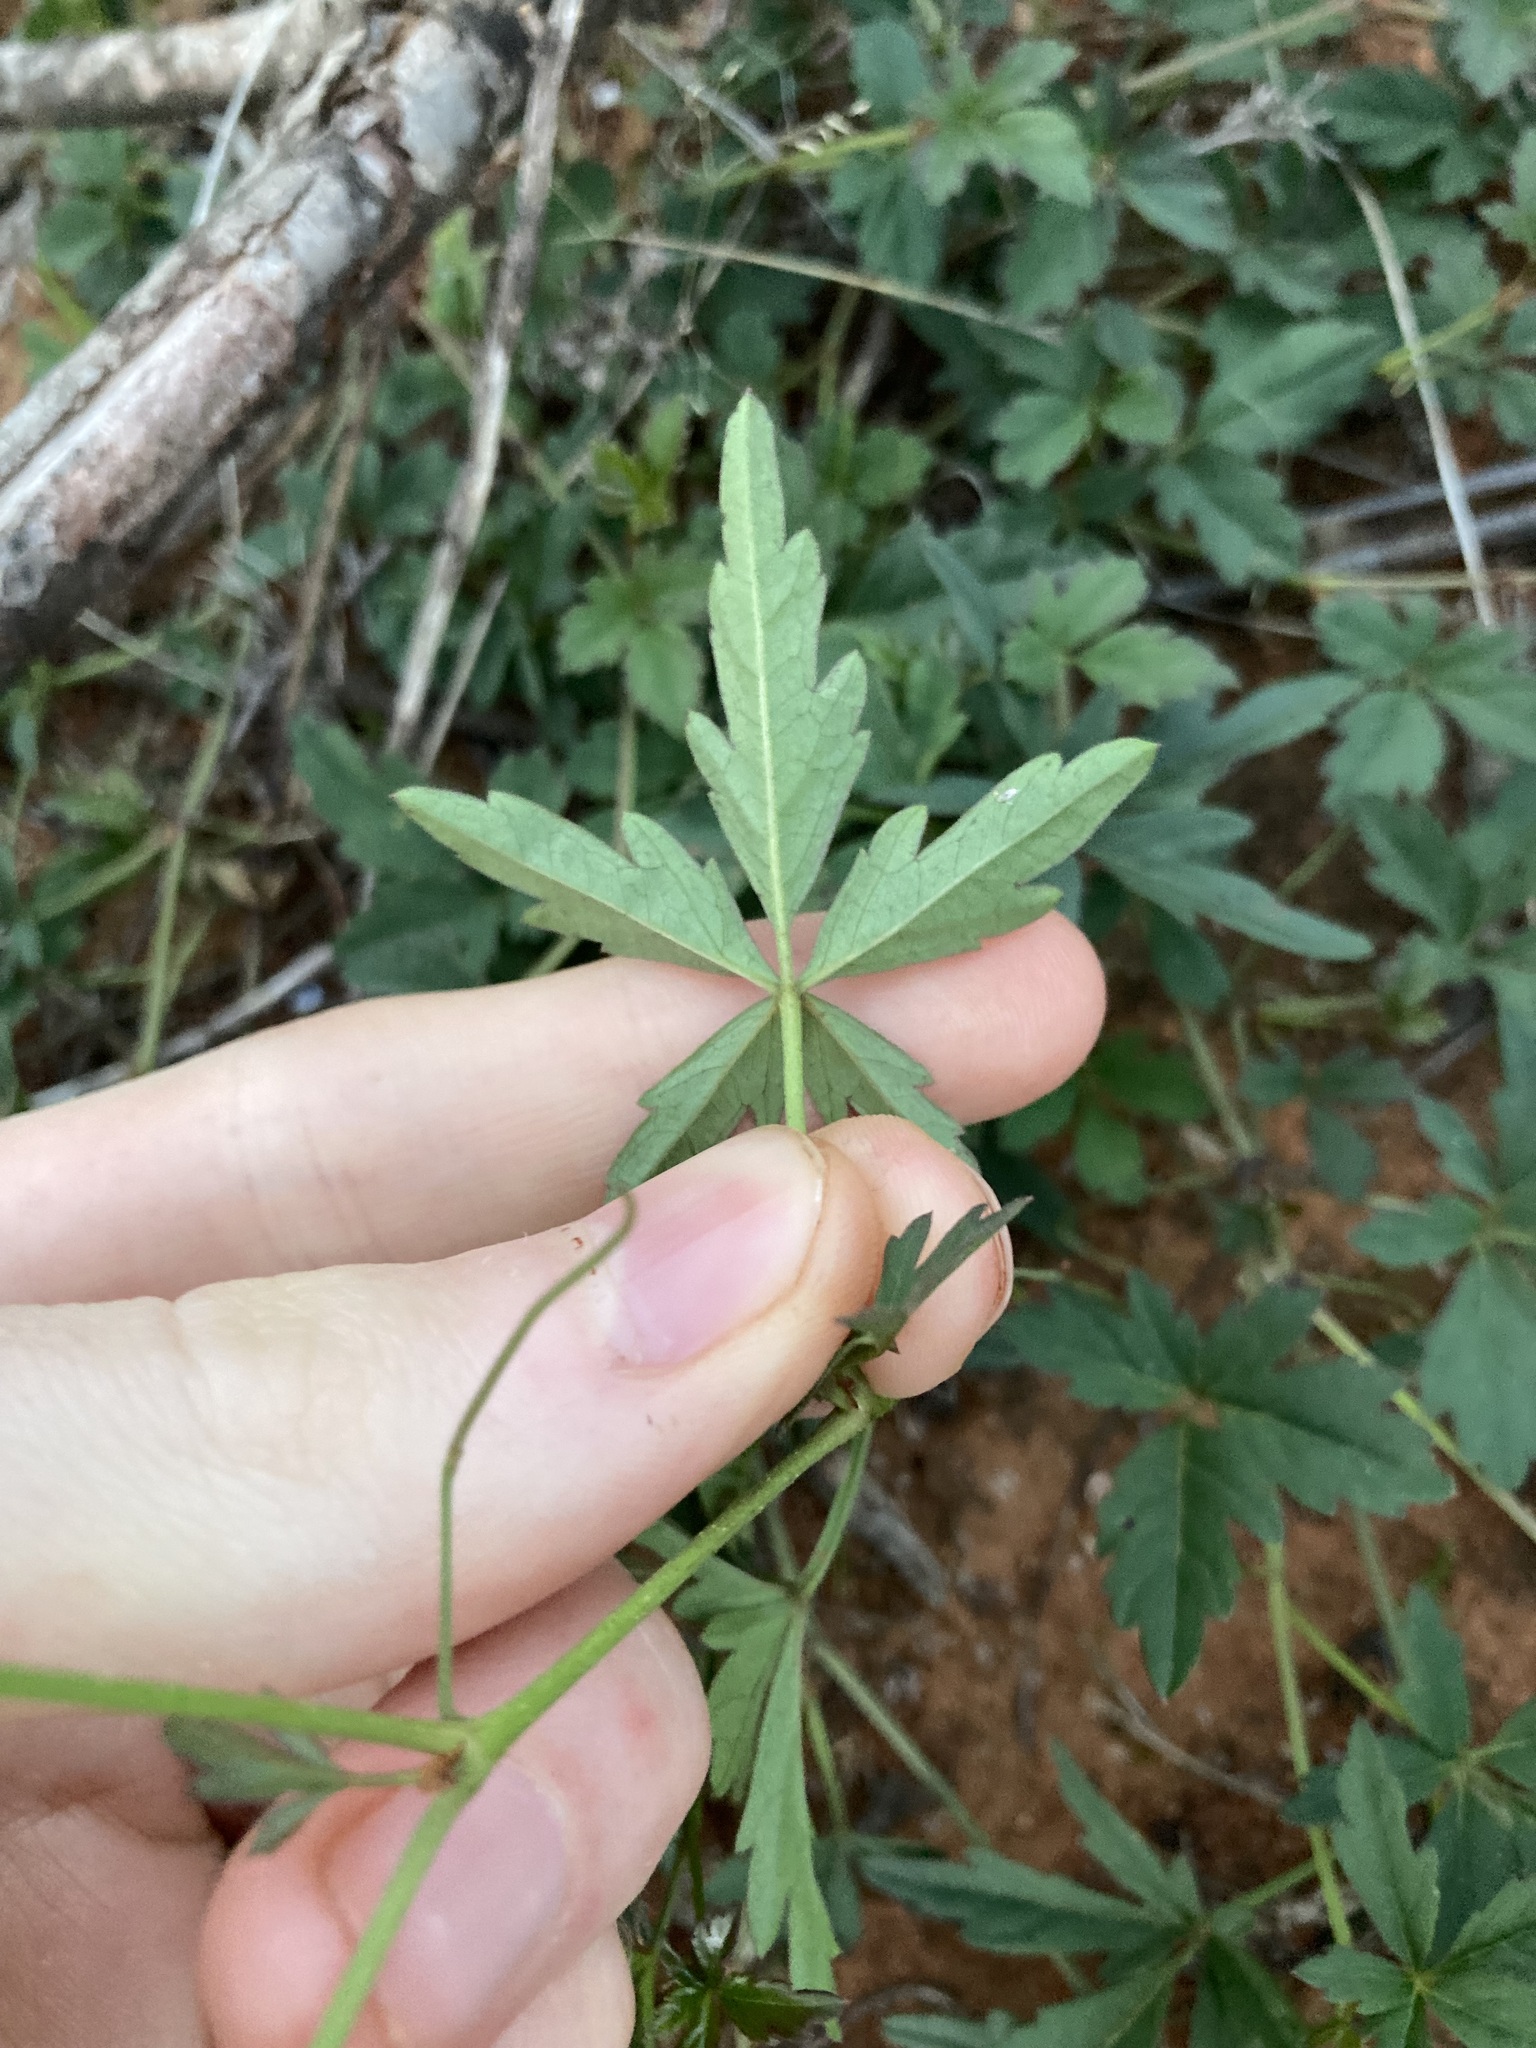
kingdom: Plantae
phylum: Tracheophyta
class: Magnoliopsida
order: Vitales
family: Vitaceae
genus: Clematicissus
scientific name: Clematicissus angustissima
